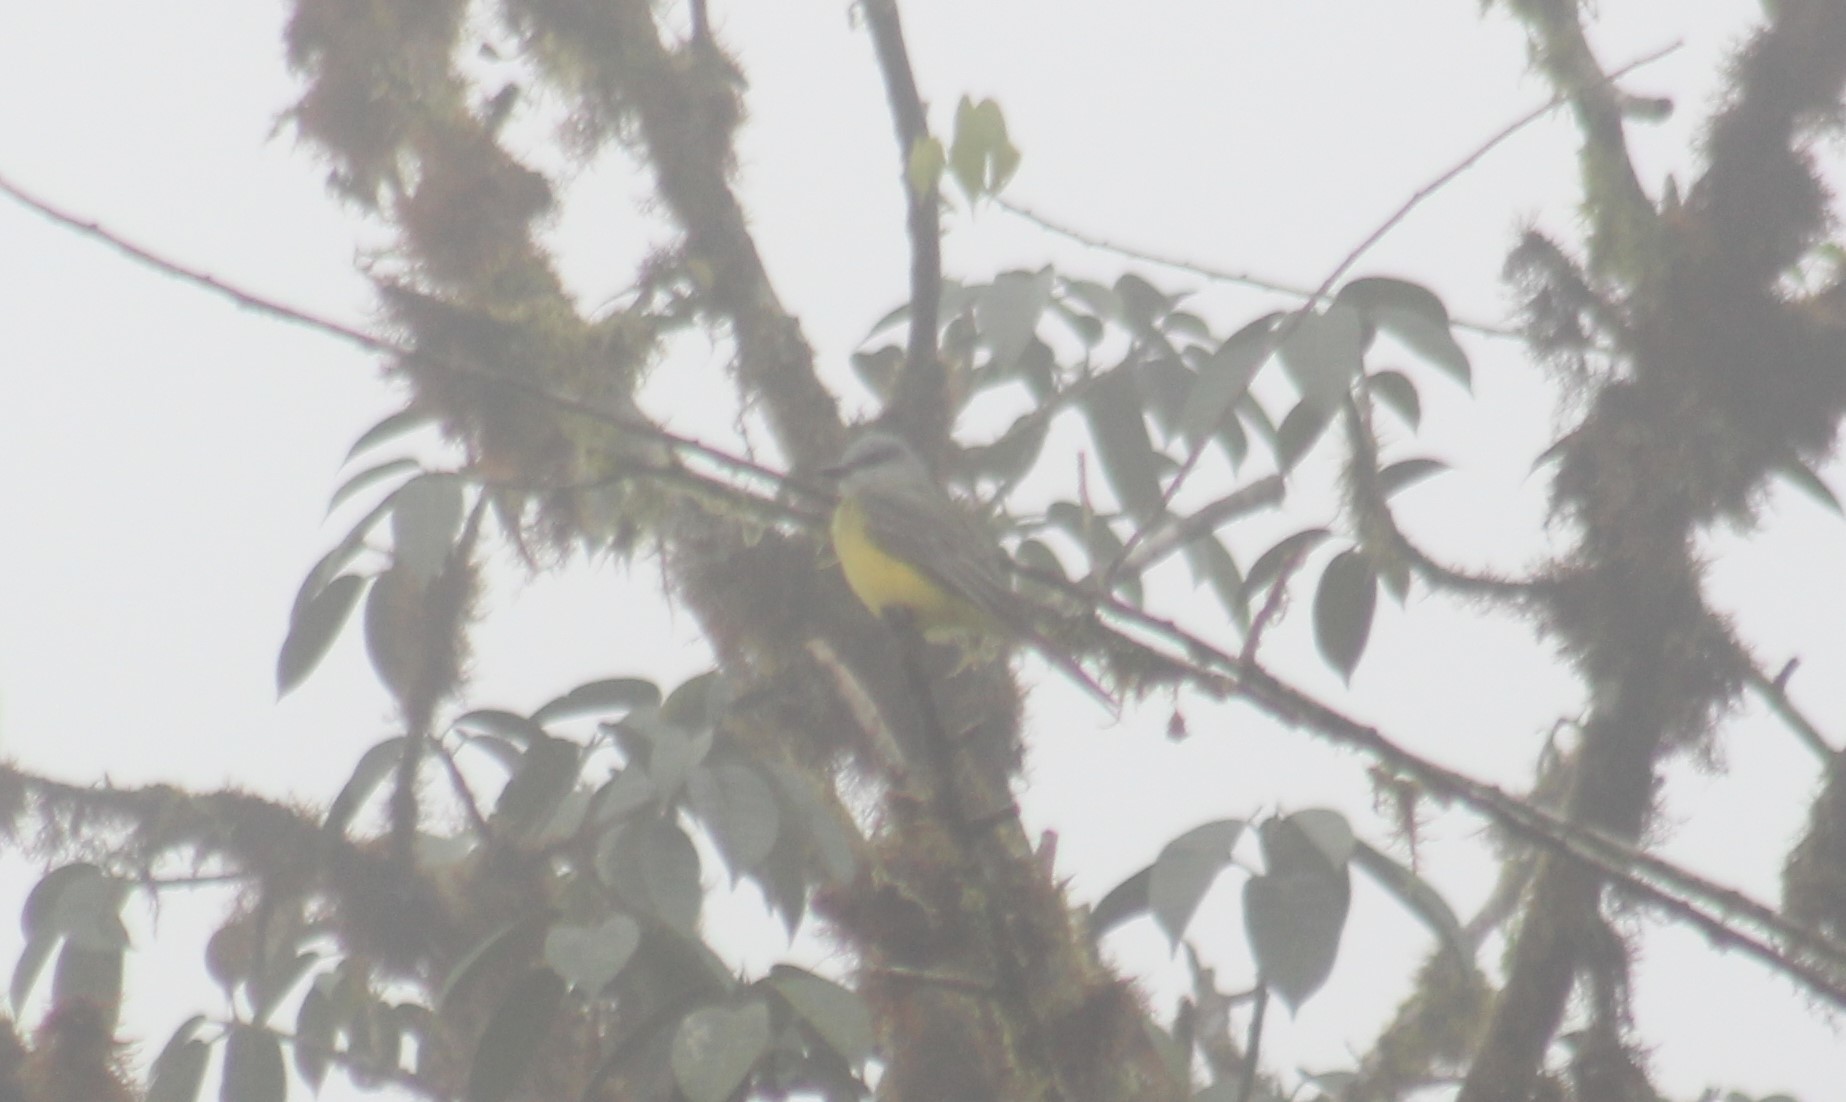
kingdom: Animalia
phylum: Chordata
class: Aves
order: Passeriformes
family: Tyrannidae
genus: Tyrannus
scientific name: Tyrannus melancholicus
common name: Tropical kingbird
